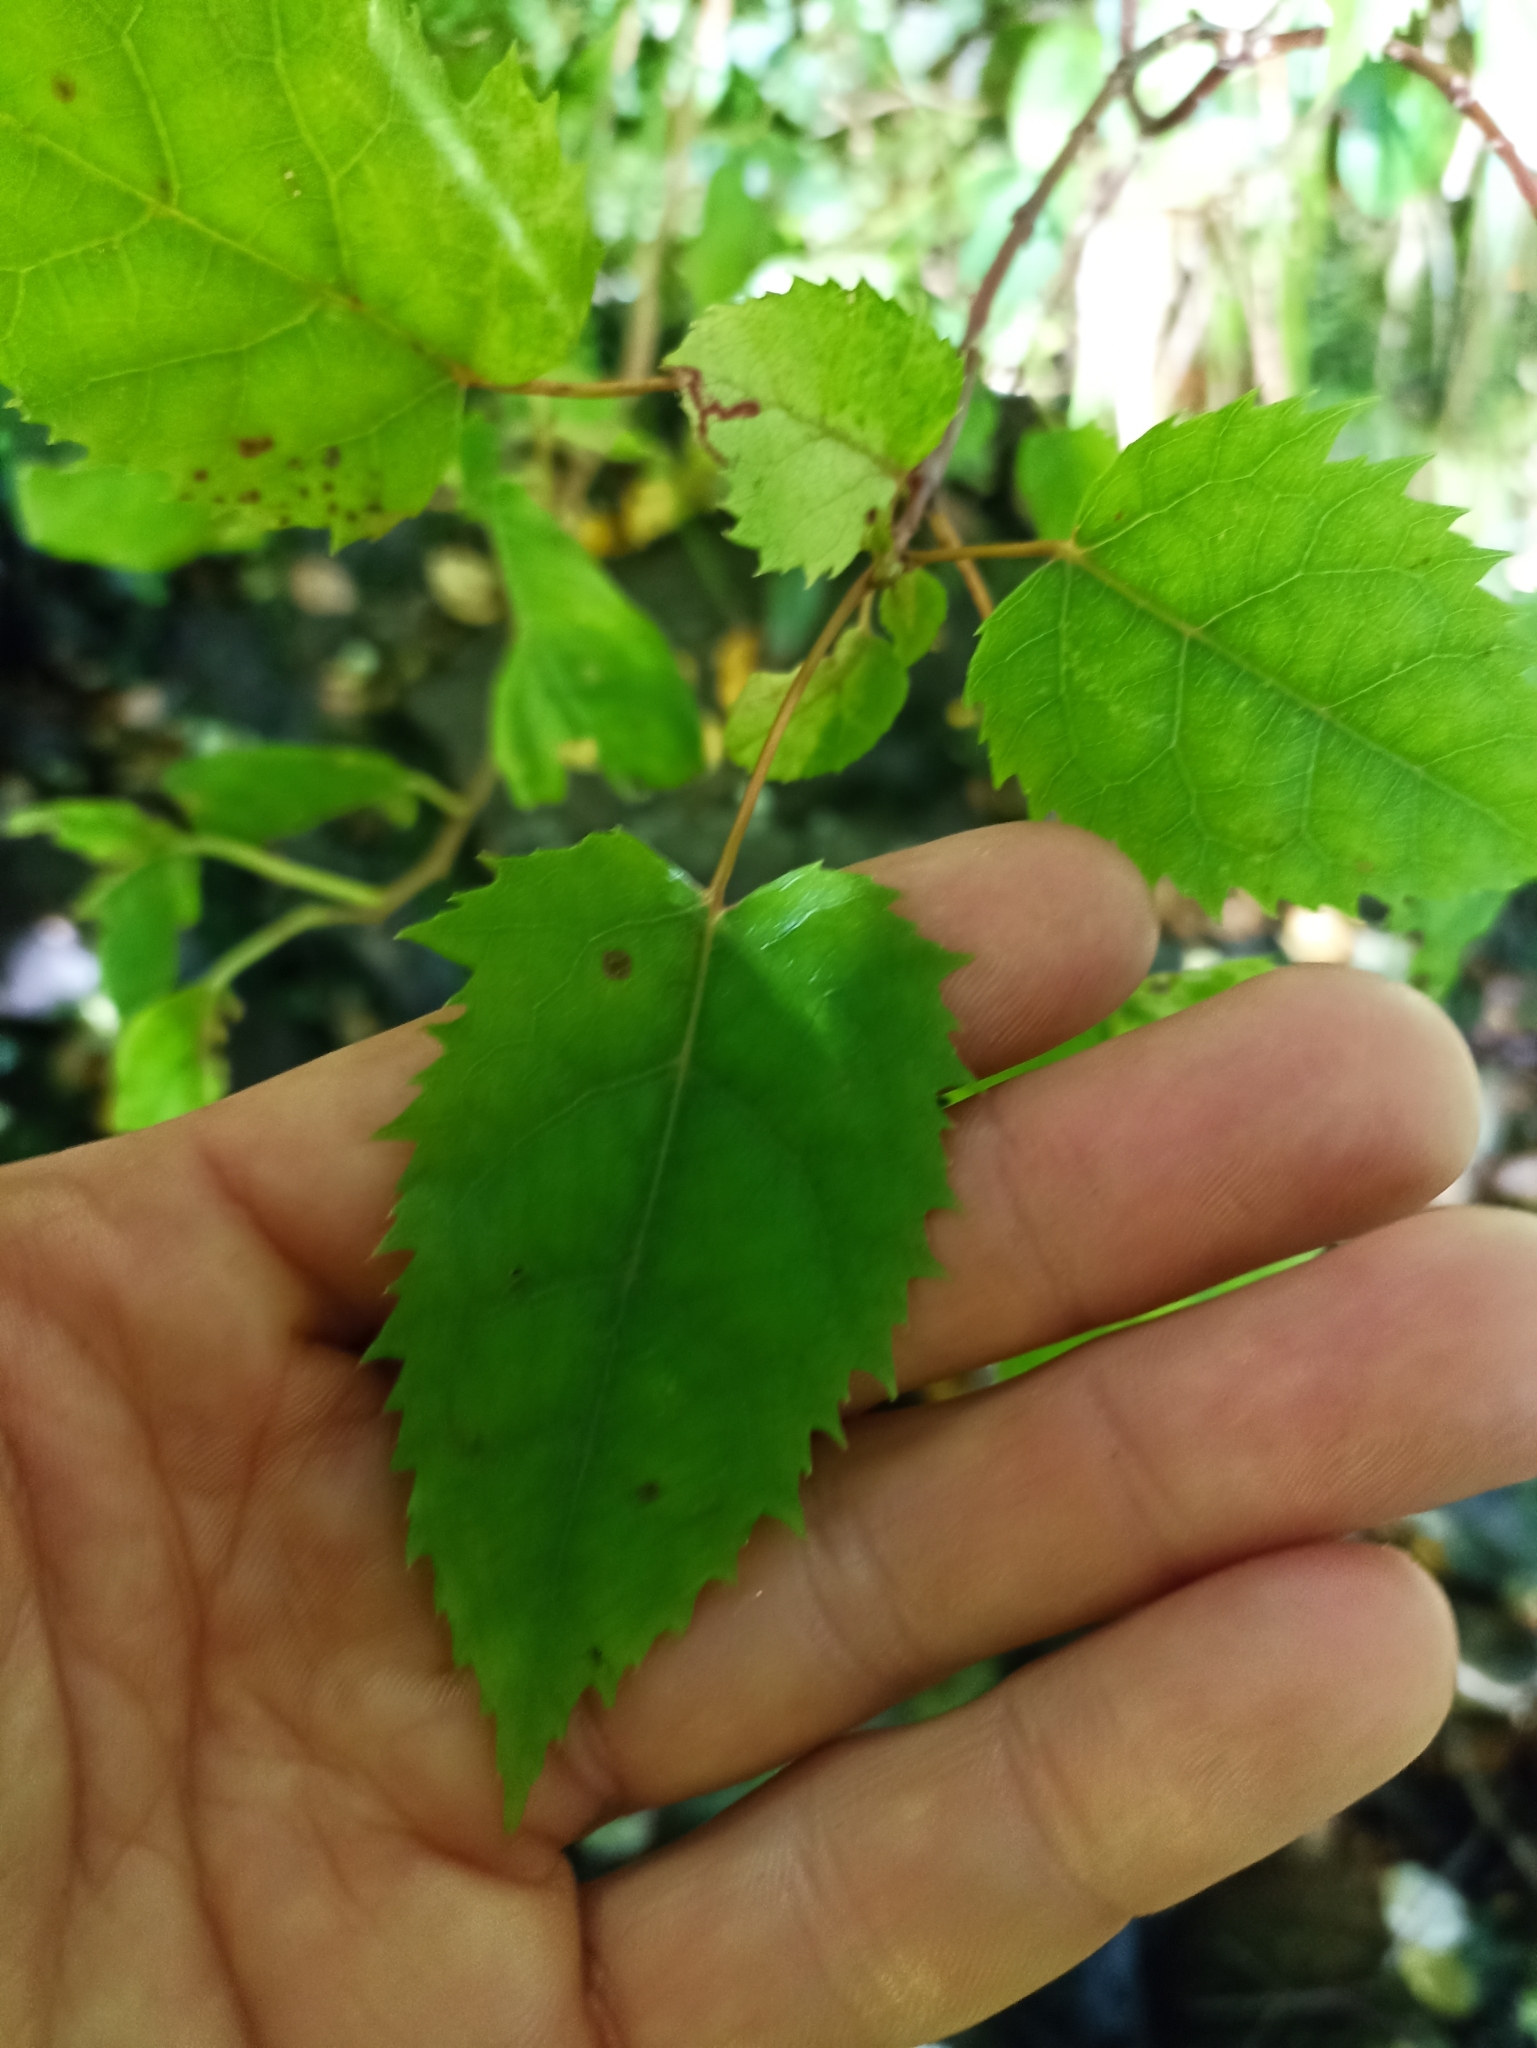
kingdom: Plantae
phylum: Tracheophyta
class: Magnoliopsida
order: Oxalidales
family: Elaeocarpaceae
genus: Aristotelia
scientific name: Aristotelia serrata
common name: New zealand wineberry
